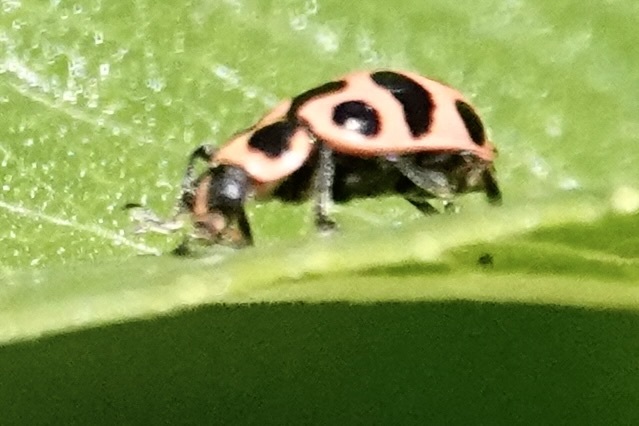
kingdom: Animalia
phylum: Arthropoda
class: Insecta
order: Coleoptera
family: Coccinellidae
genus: Coleomegilla
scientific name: Coleomegilla maculata
